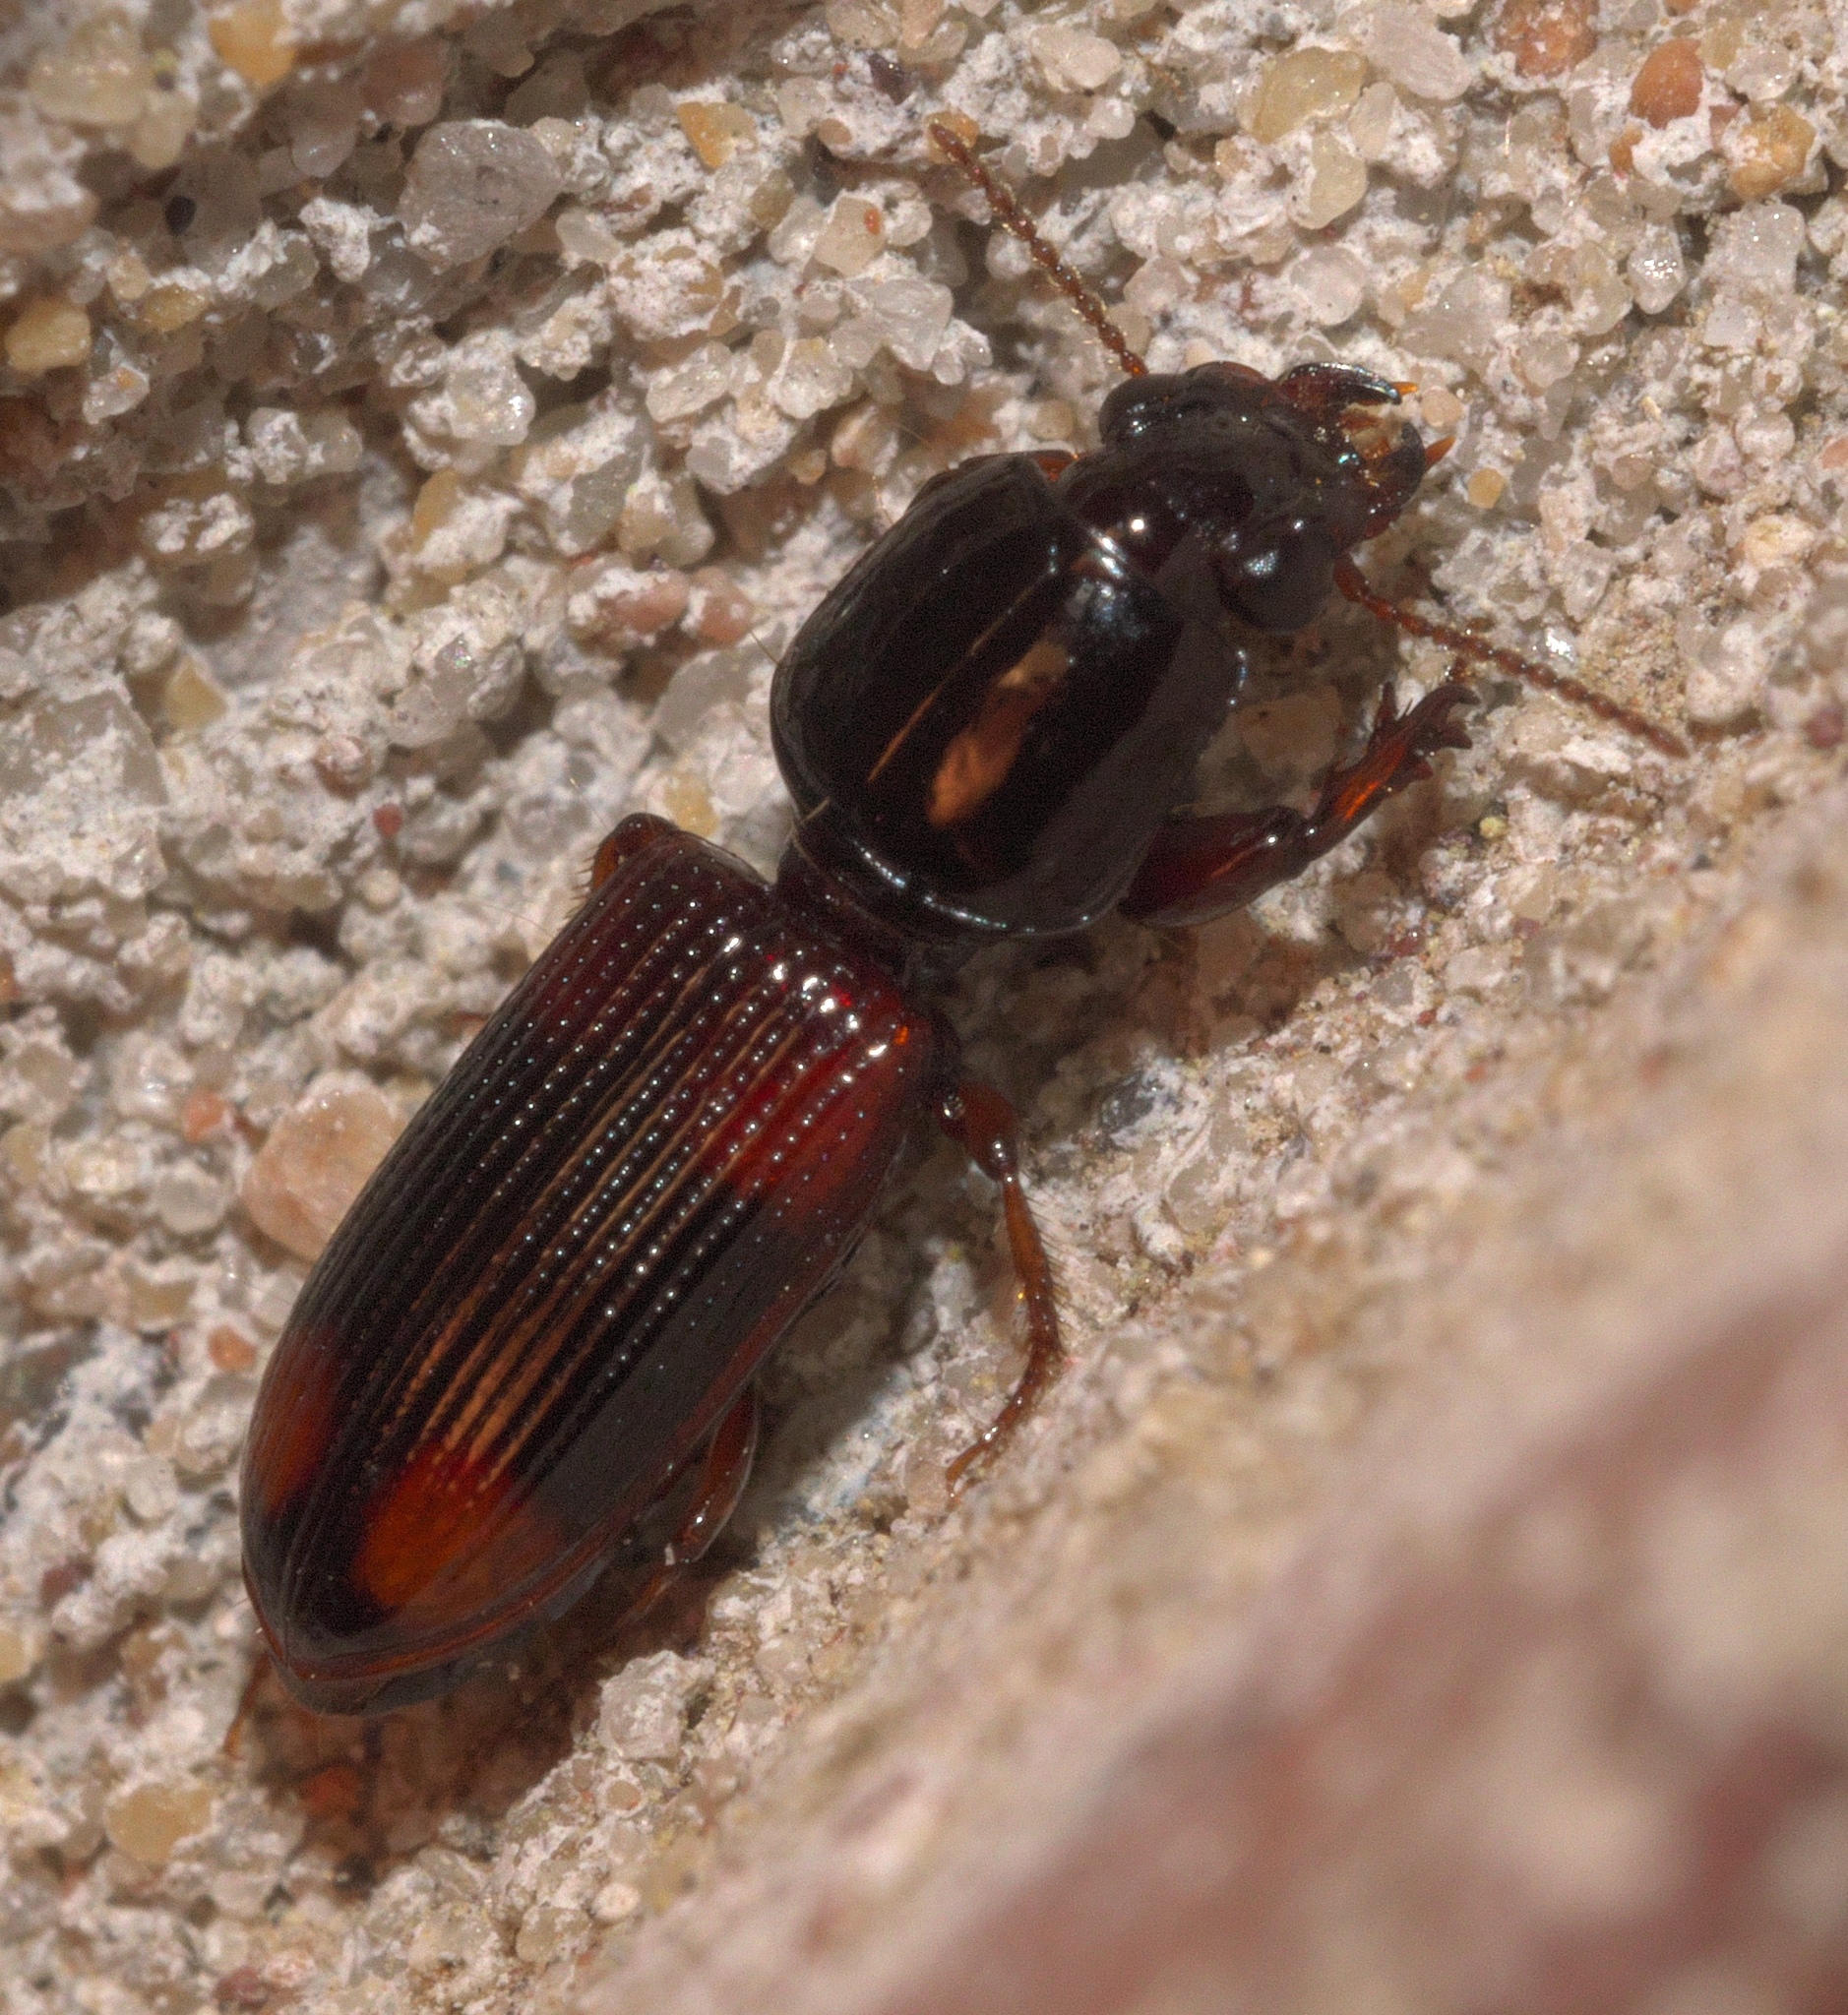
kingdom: Animalia
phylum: Arthropoda
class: Insecta
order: Coleoptera
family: Carabidae
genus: Clivina
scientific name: Clivina bipustulata
